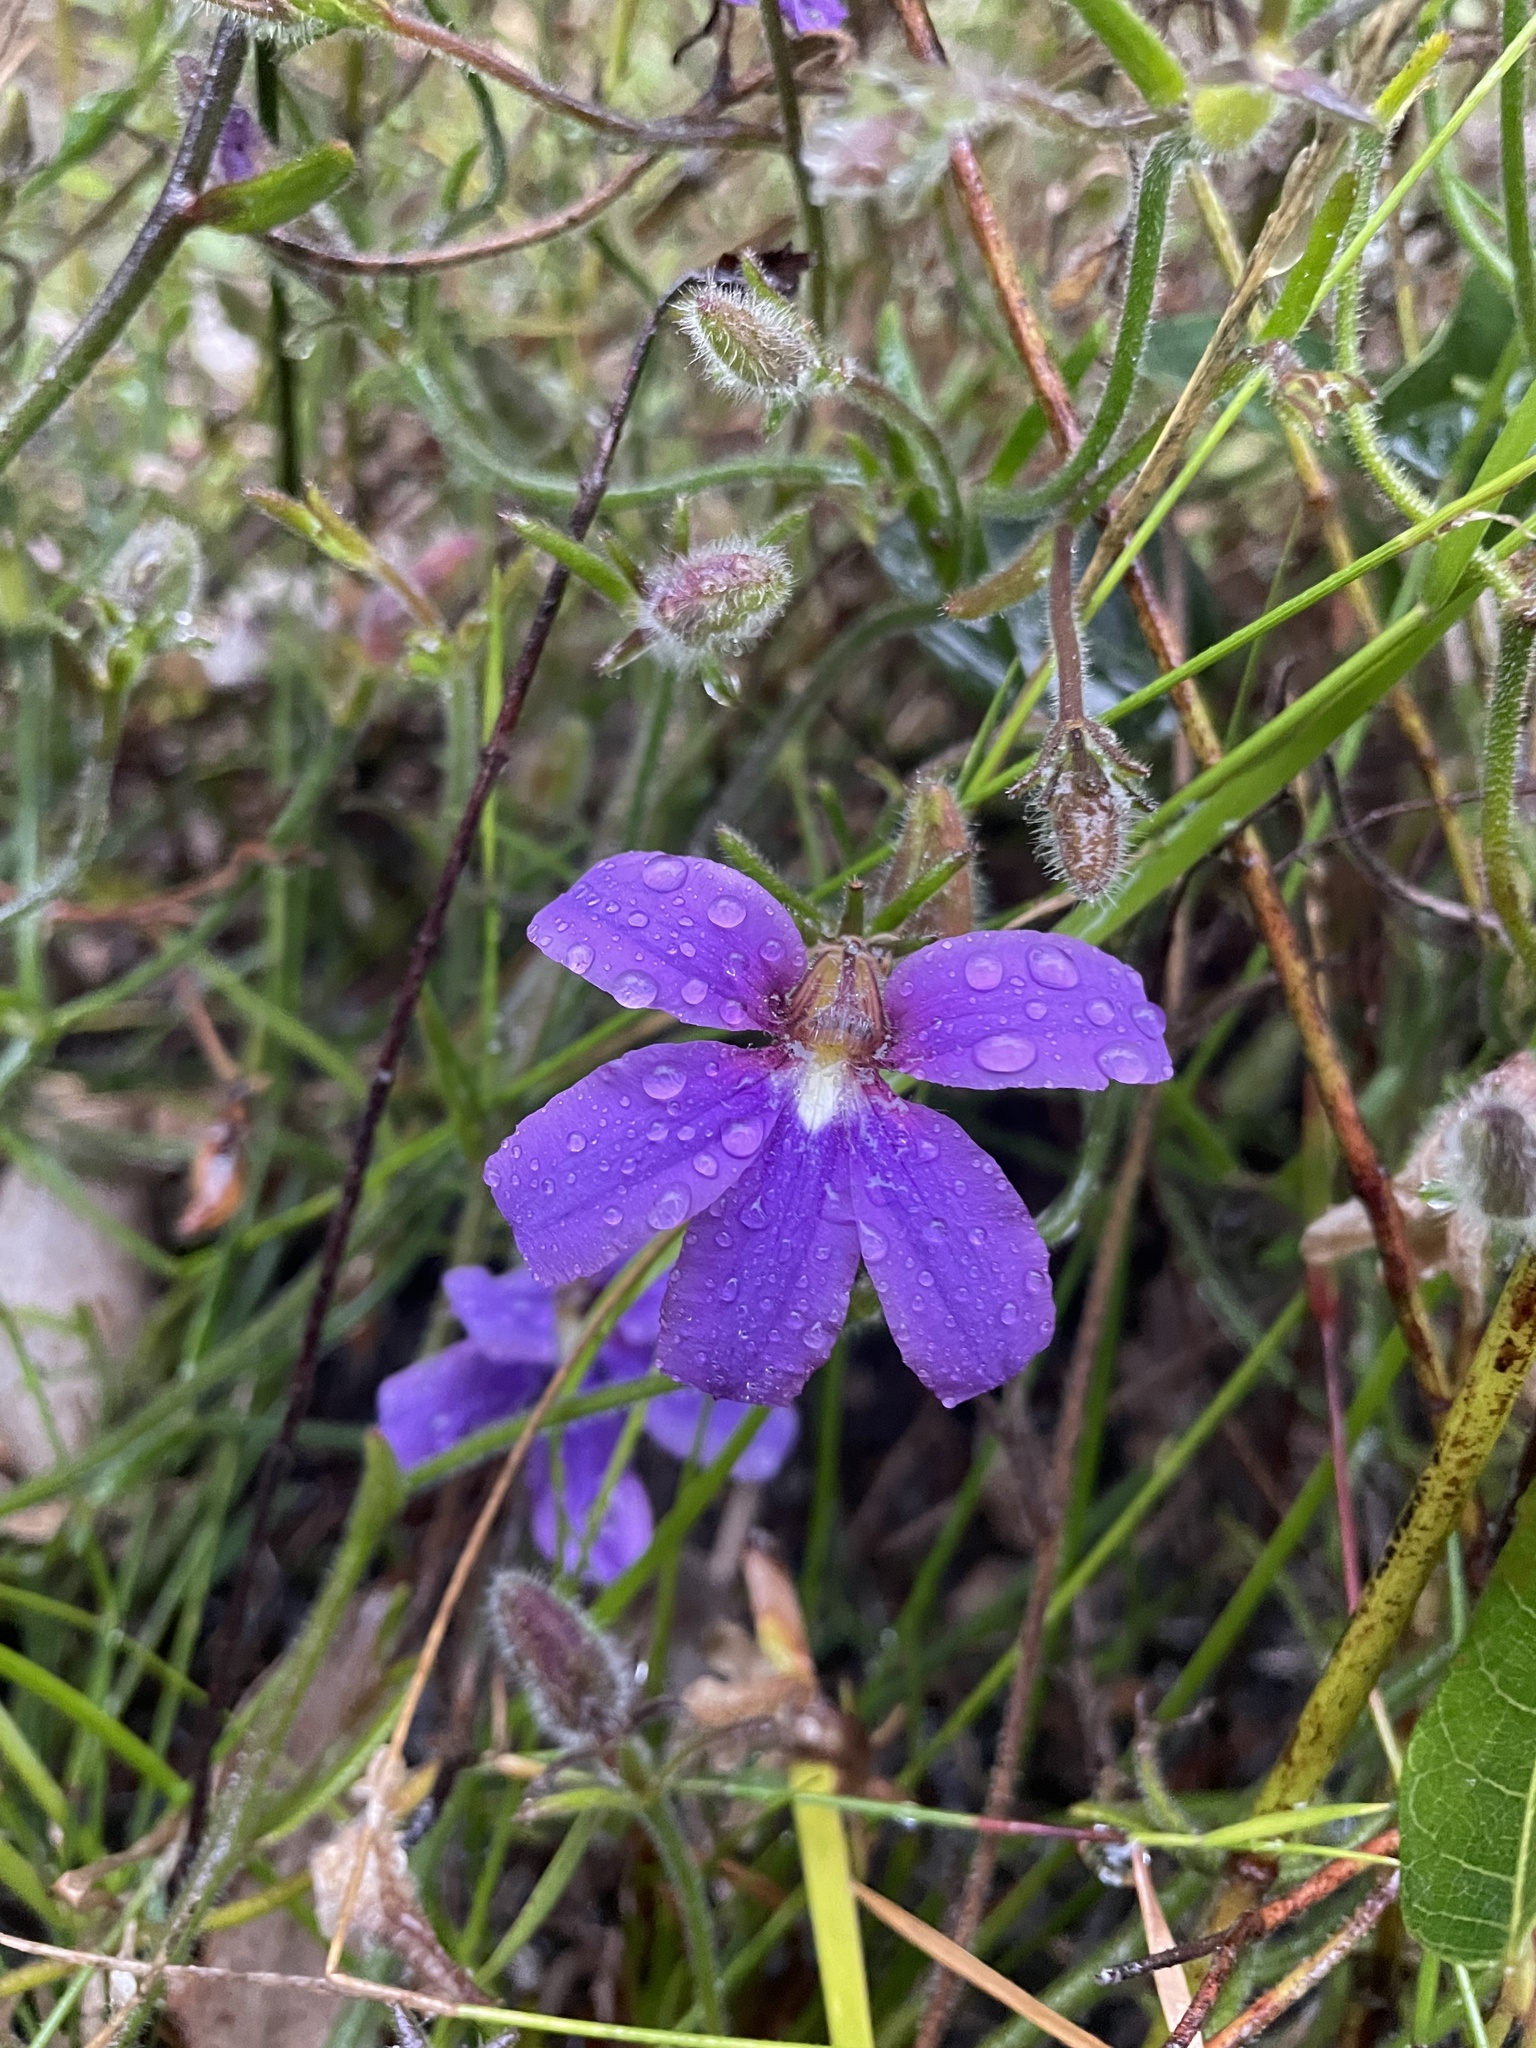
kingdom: Plantae
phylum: Tracheophyta
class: Magnoliopsida
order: Asterales
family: Goodeniaceae
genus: Scaevola
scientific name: Scaevola ramosissima
